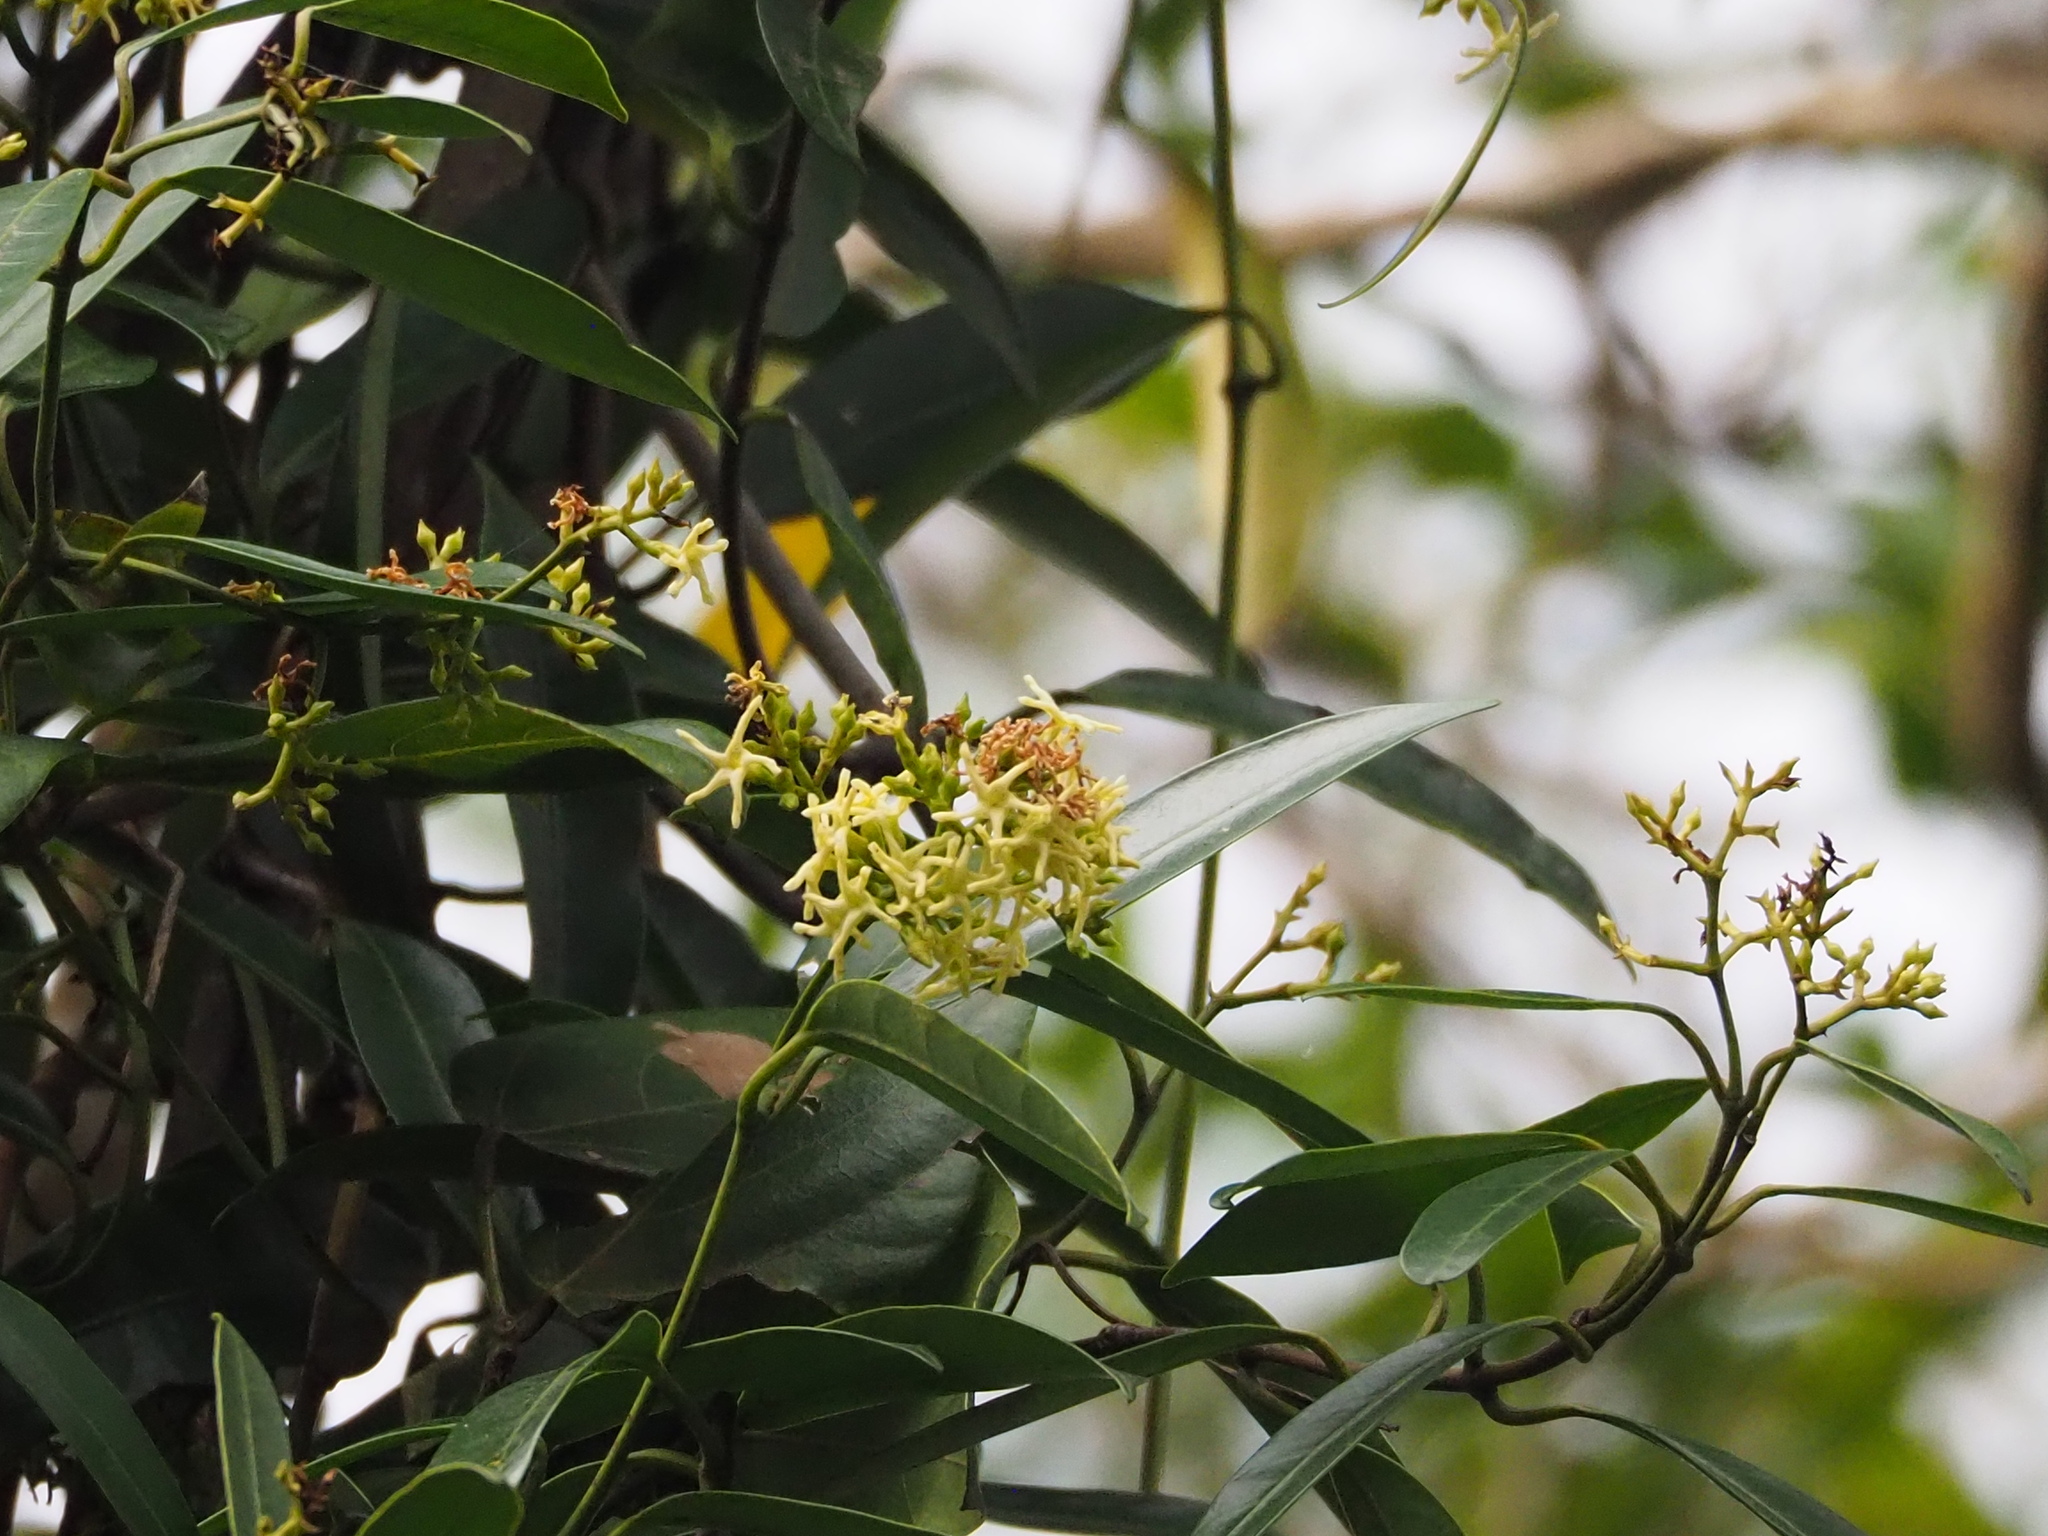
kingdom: Plantae
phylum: Tracheophyta
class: Magnoliopsida
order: Gentianales
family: Apocynaceae
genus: Anodendron
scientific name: Anodendron affine
